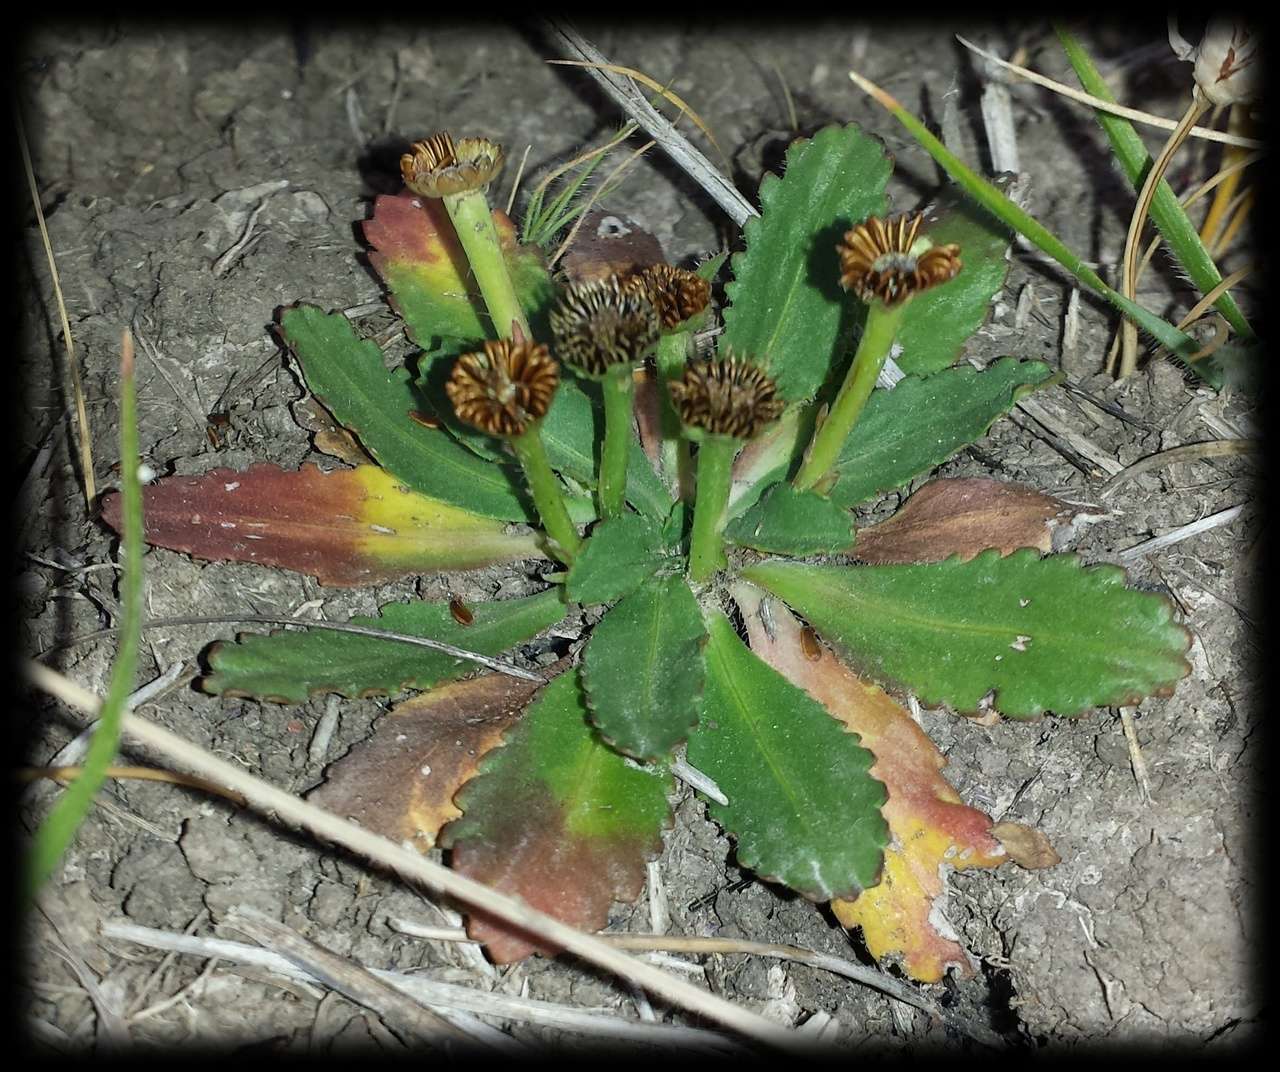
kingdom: Plantae
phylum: Tracheophyta
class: Magnoliopsida
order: Asterales
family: Asteraceae
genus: Solenogyne
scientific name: Solenogyne dominii
